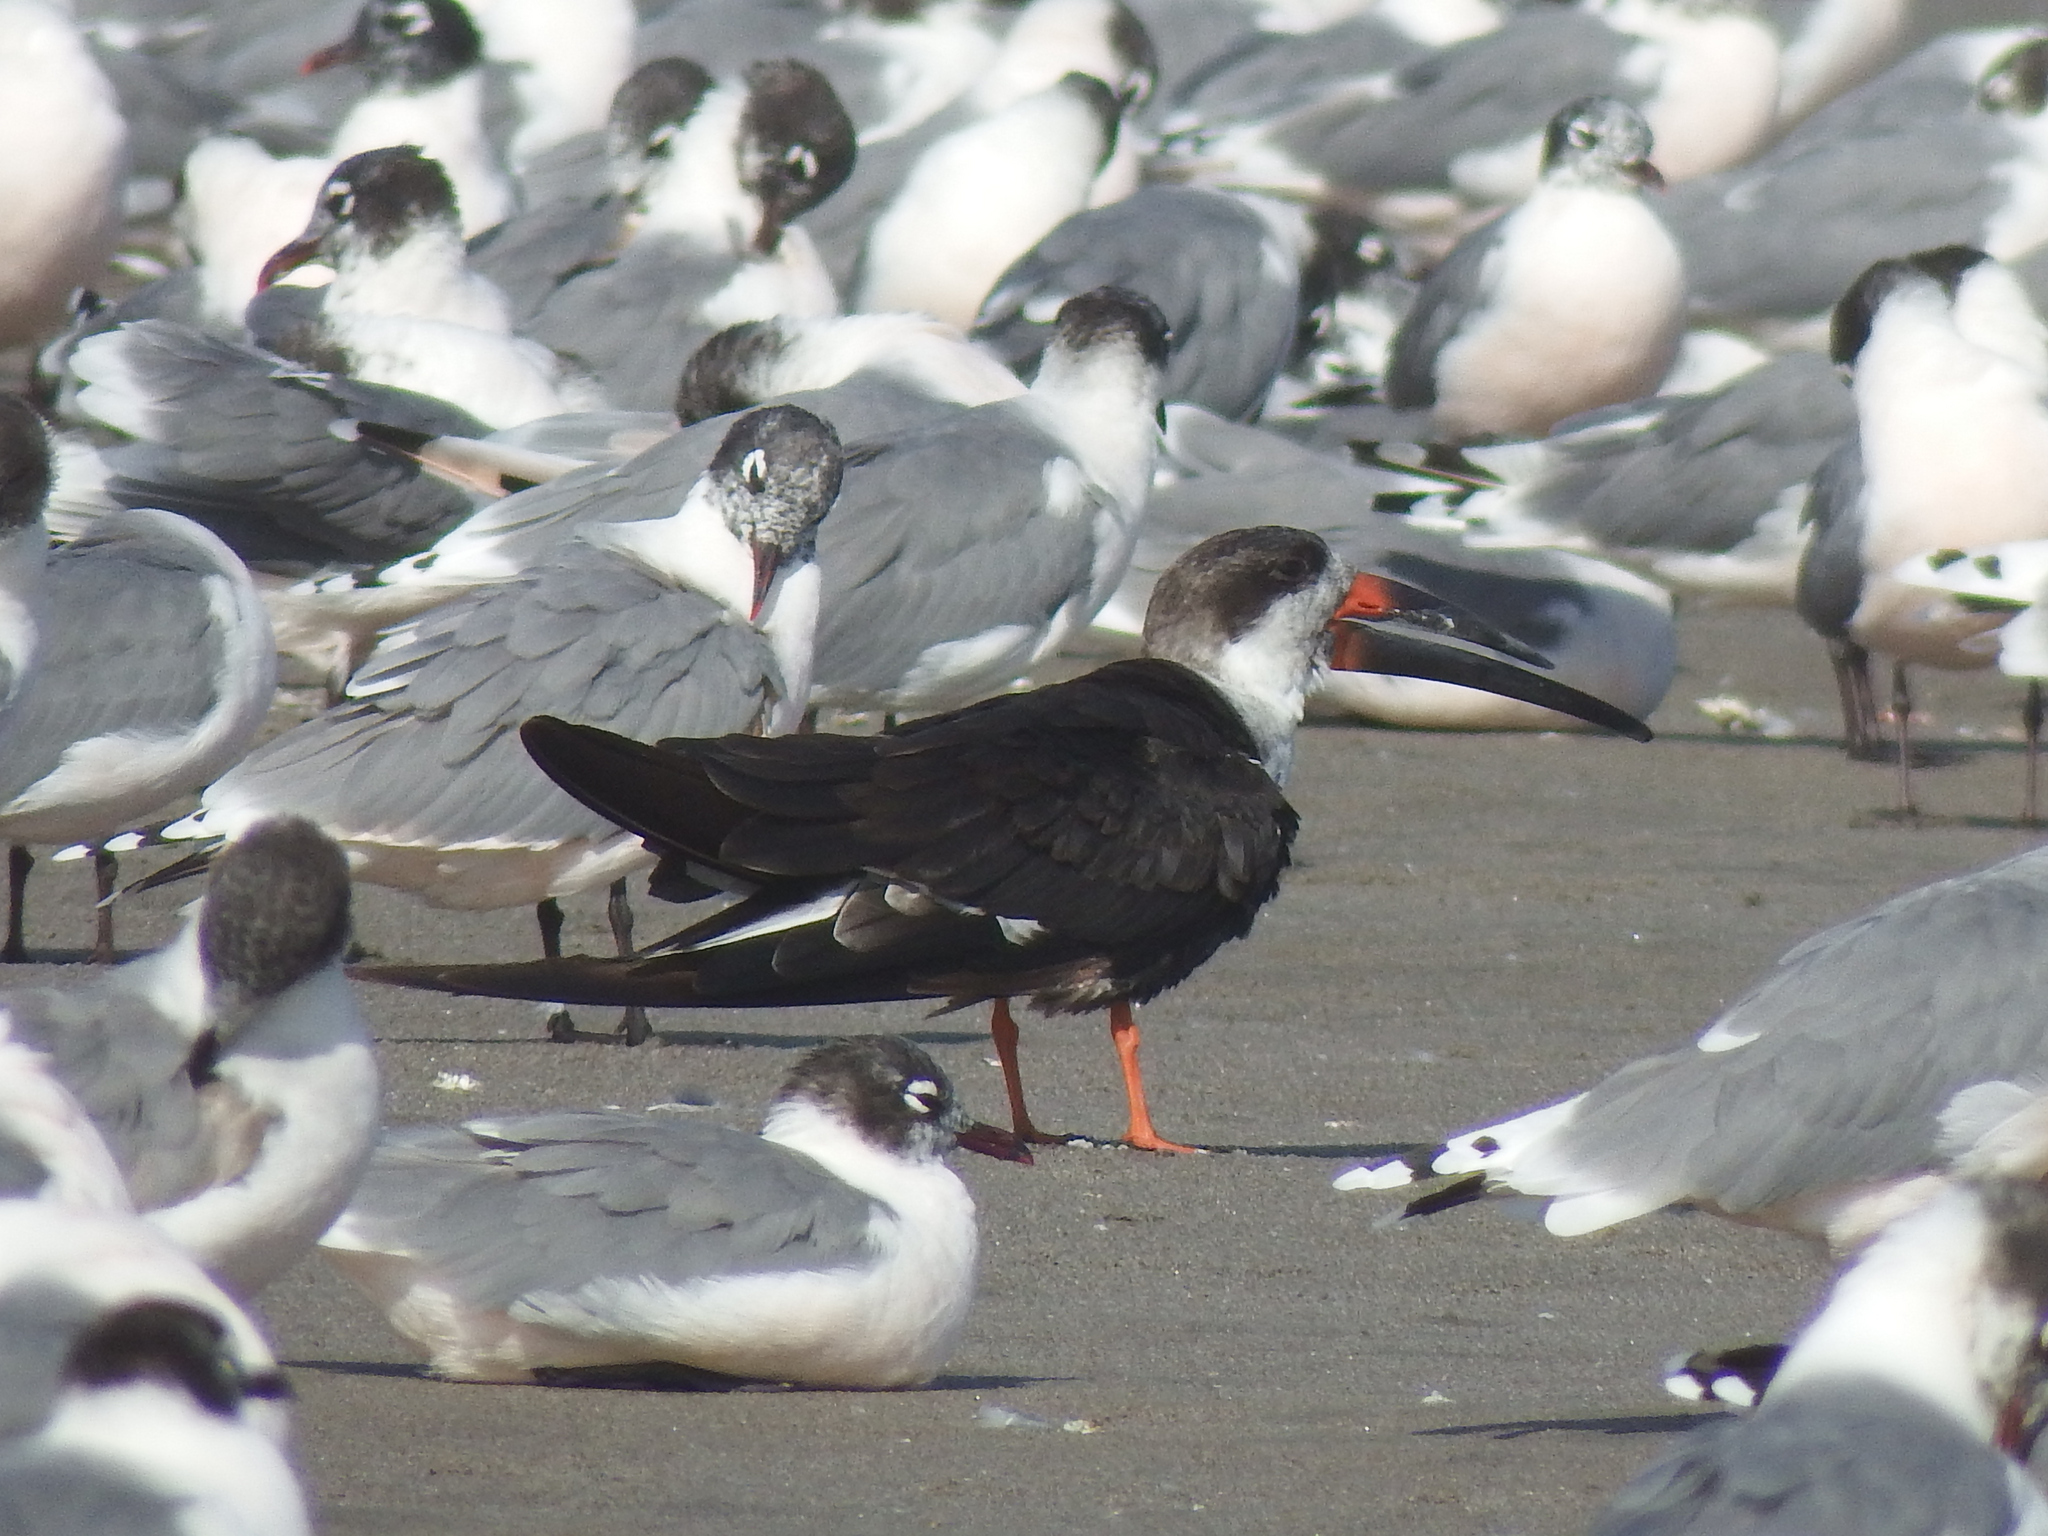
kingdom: Animalia
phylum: Chordata
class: Aves
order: Charadriiformes
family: Laridae
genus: Rynchops
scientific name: Rynchops niger
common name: Black skimmer
